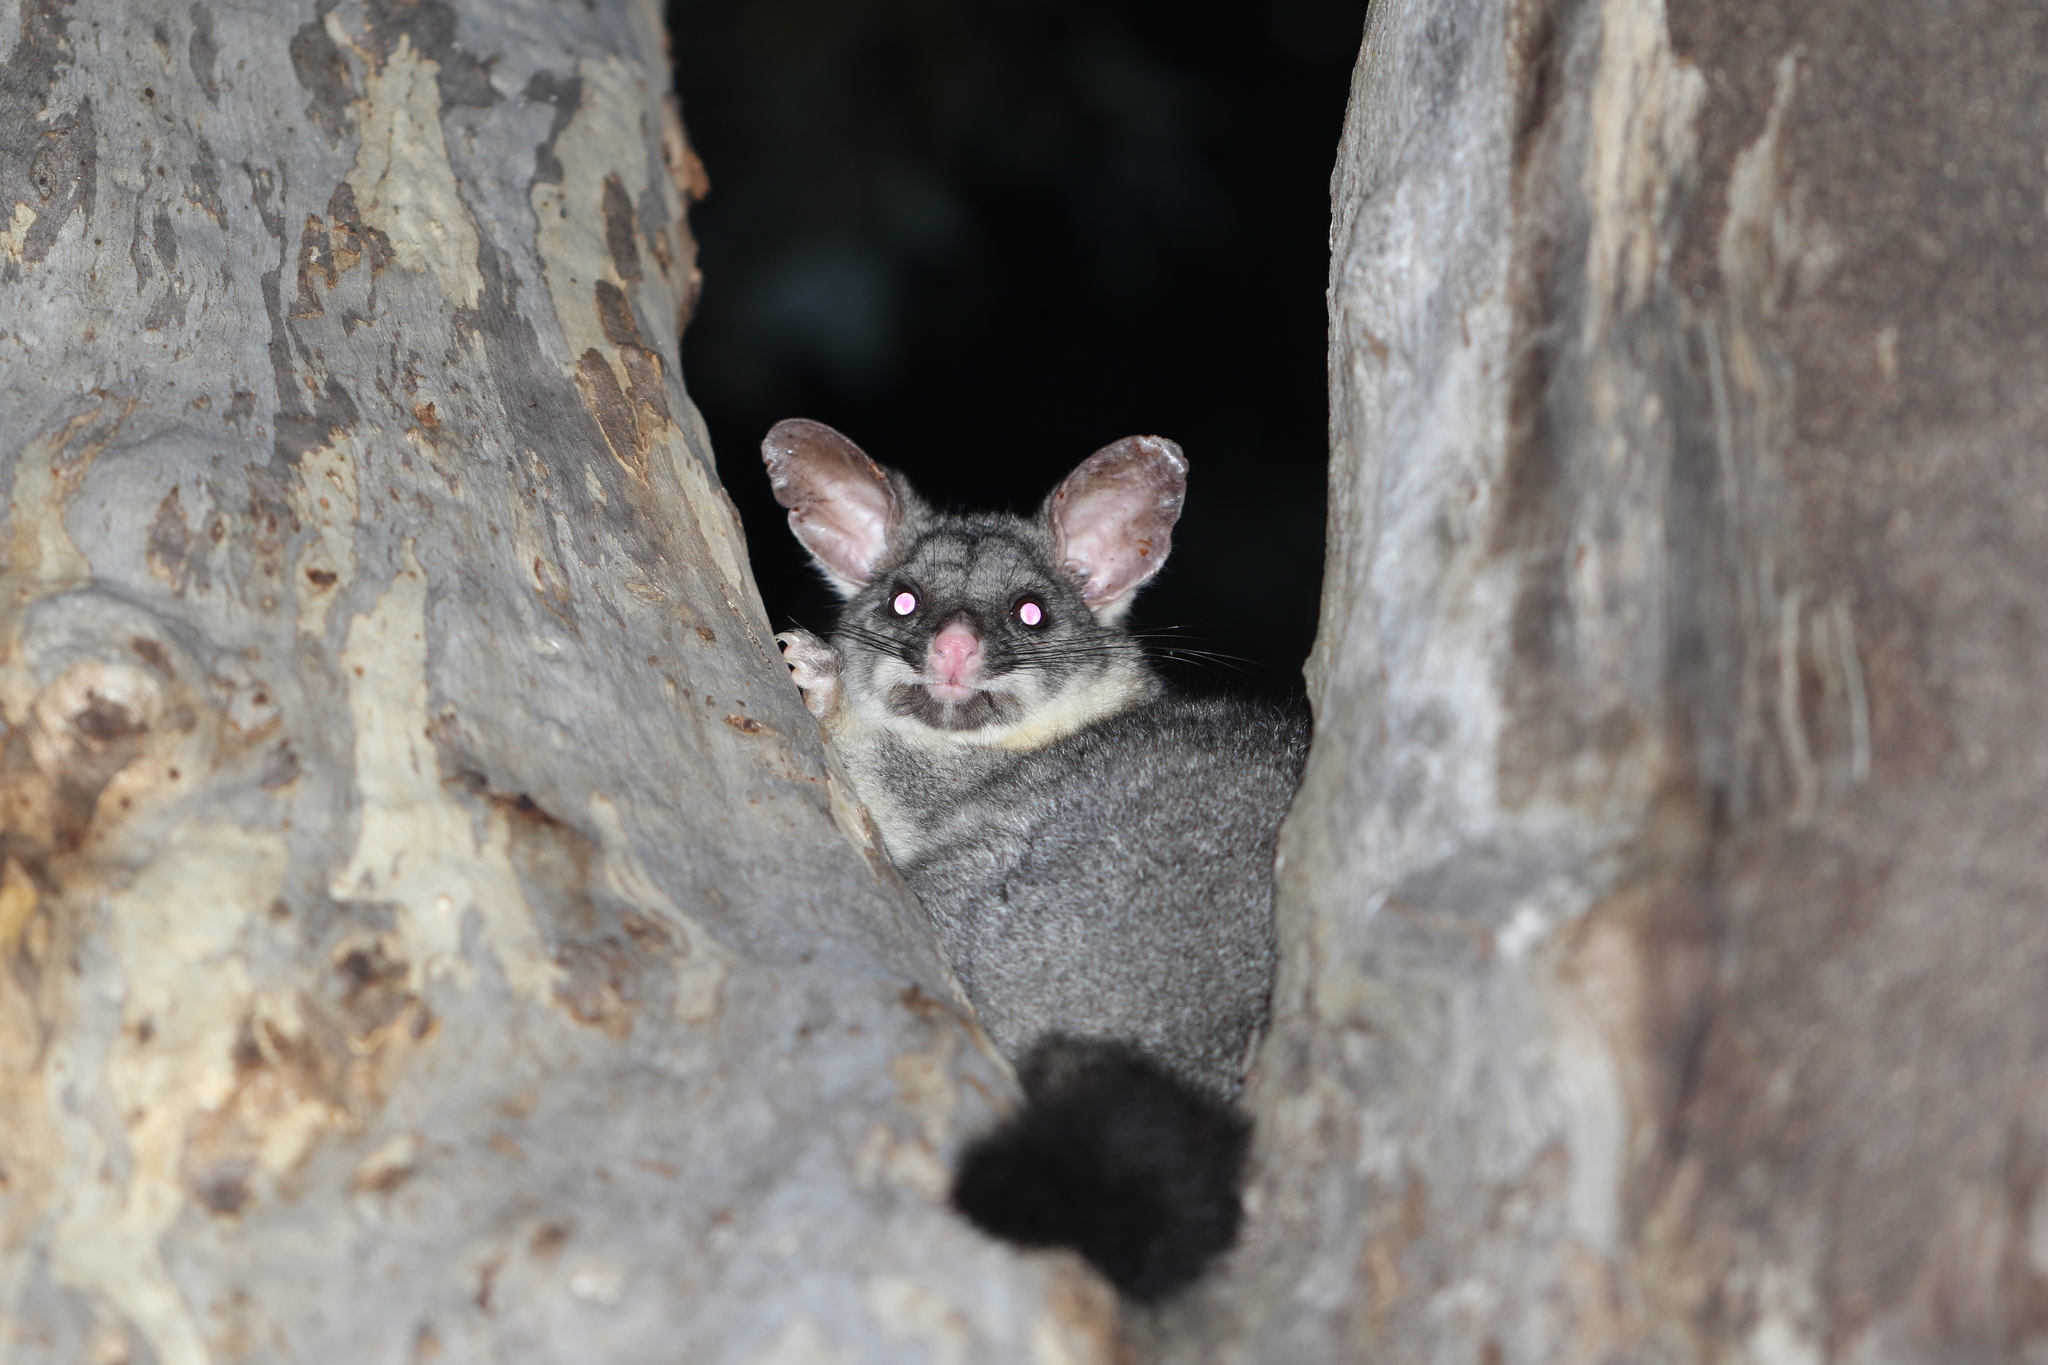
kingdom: Animalia
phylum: Chordata
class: Mammalia
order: Diprotodontia
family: Phalangeridae
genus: Trichosurus
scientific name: Trichosurus vulpecula
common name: Common brushtail
